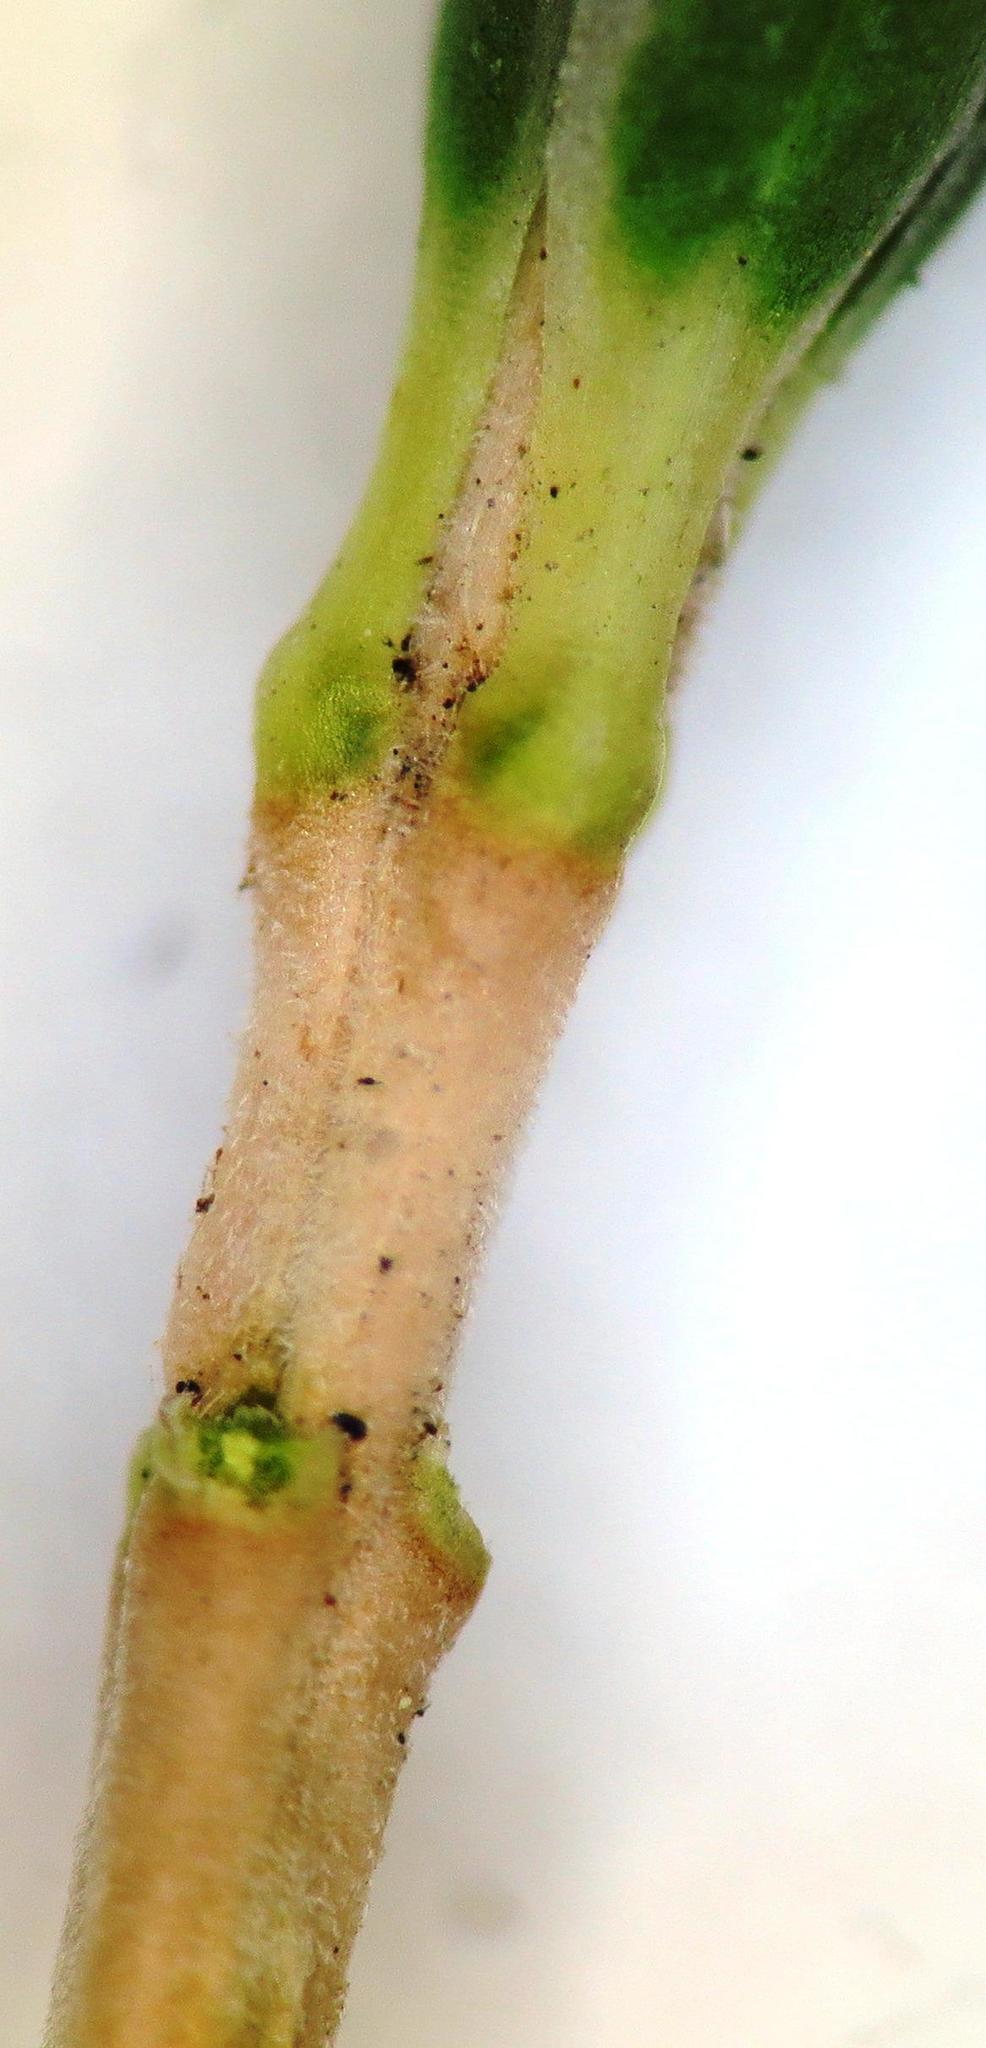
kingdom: Plantae
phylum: Tracheophyta
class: Magnoliopsida
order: Ericales
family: Ericaceae
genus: Erica
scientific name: Erica taxifolia
